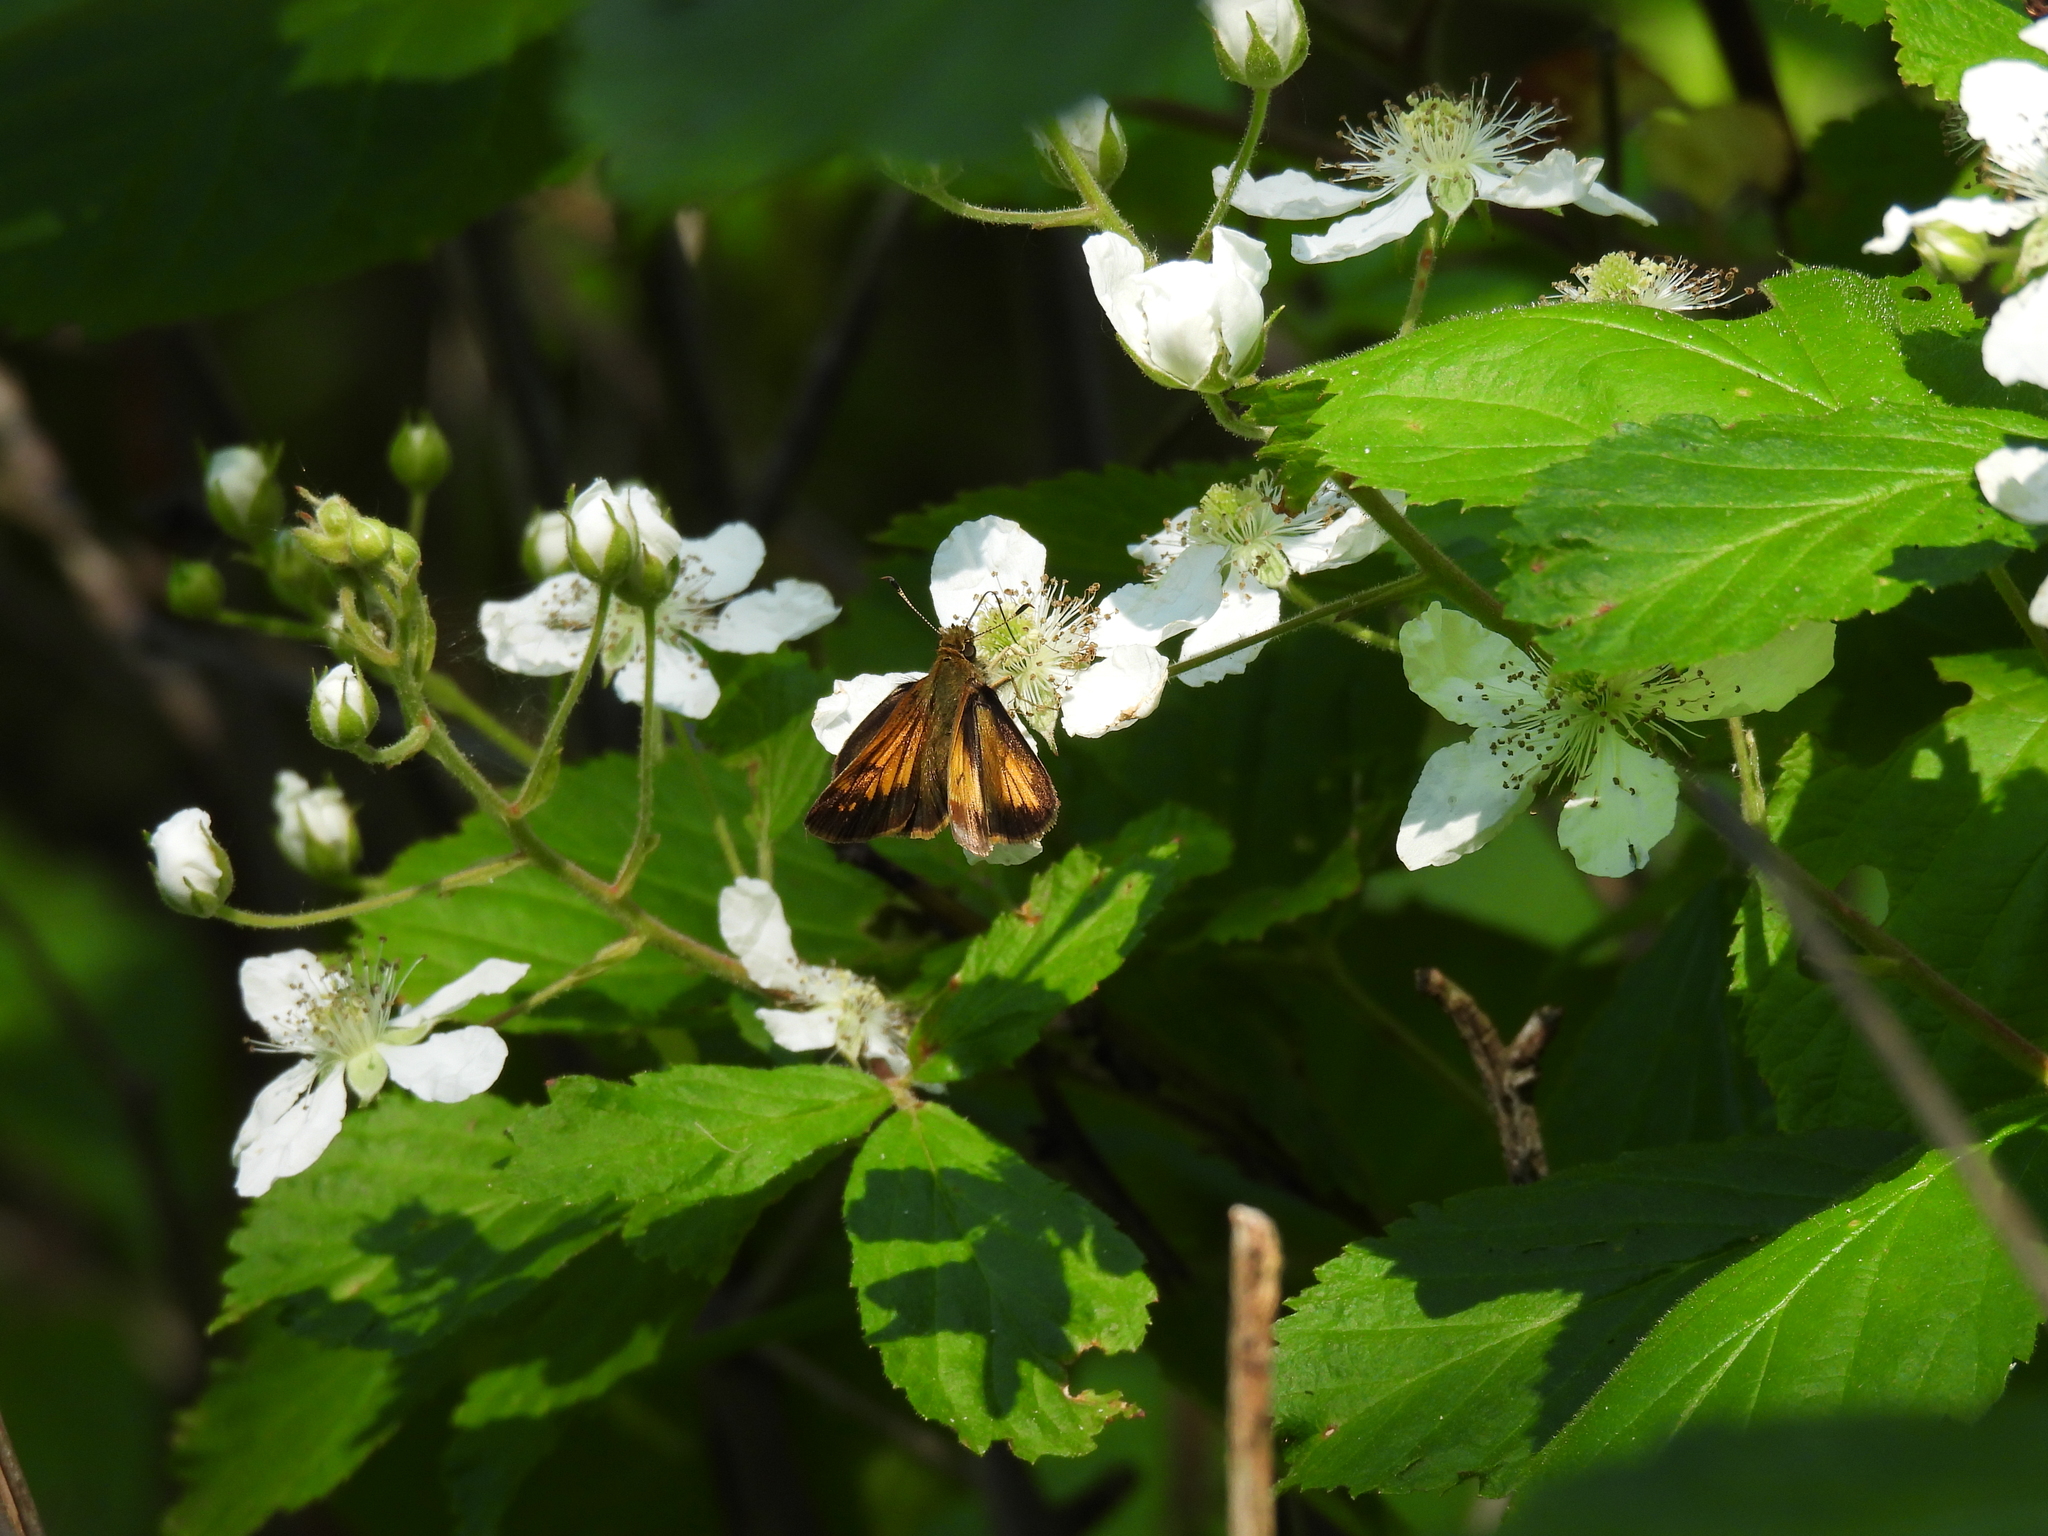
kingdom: Animalia
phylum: Arthropoda
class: Insecta
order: Lepidoptera
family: Hesperiidae
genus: Lon
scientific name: Lon hobomok
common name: Hobomok skipper
